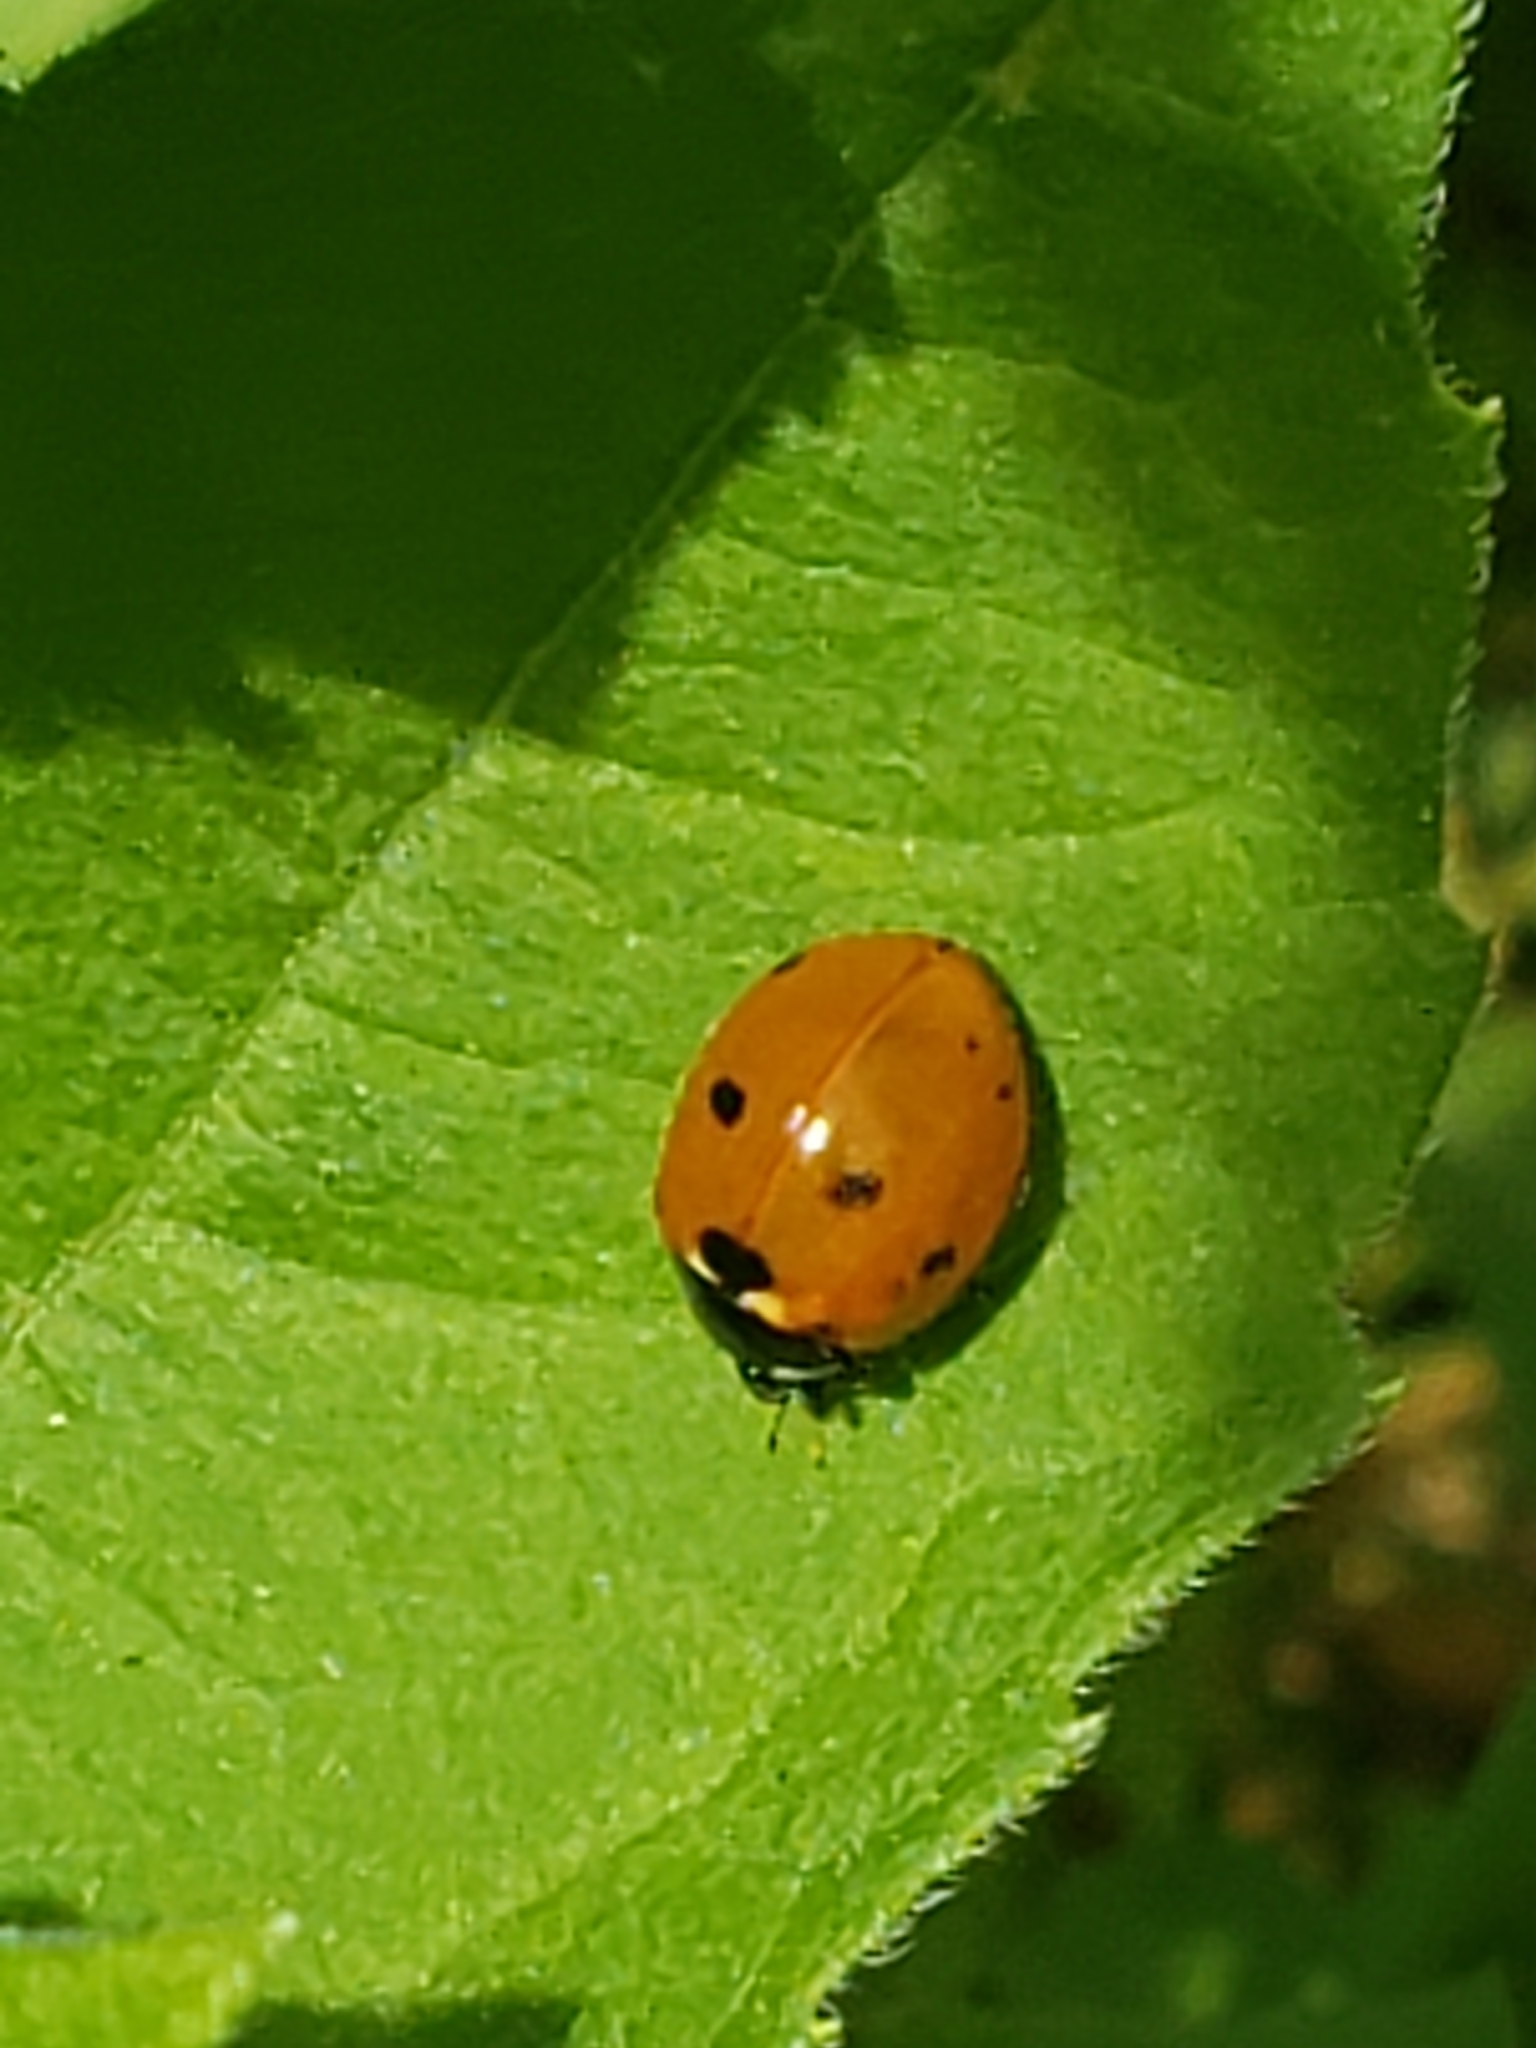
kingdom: Animalia
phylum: Arthropoda
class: Insecta
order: Coleoptera
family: Coccinellidae
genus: Coccinella
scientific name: Coccinella septempunctata
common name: Sevenspotted lady beetle
